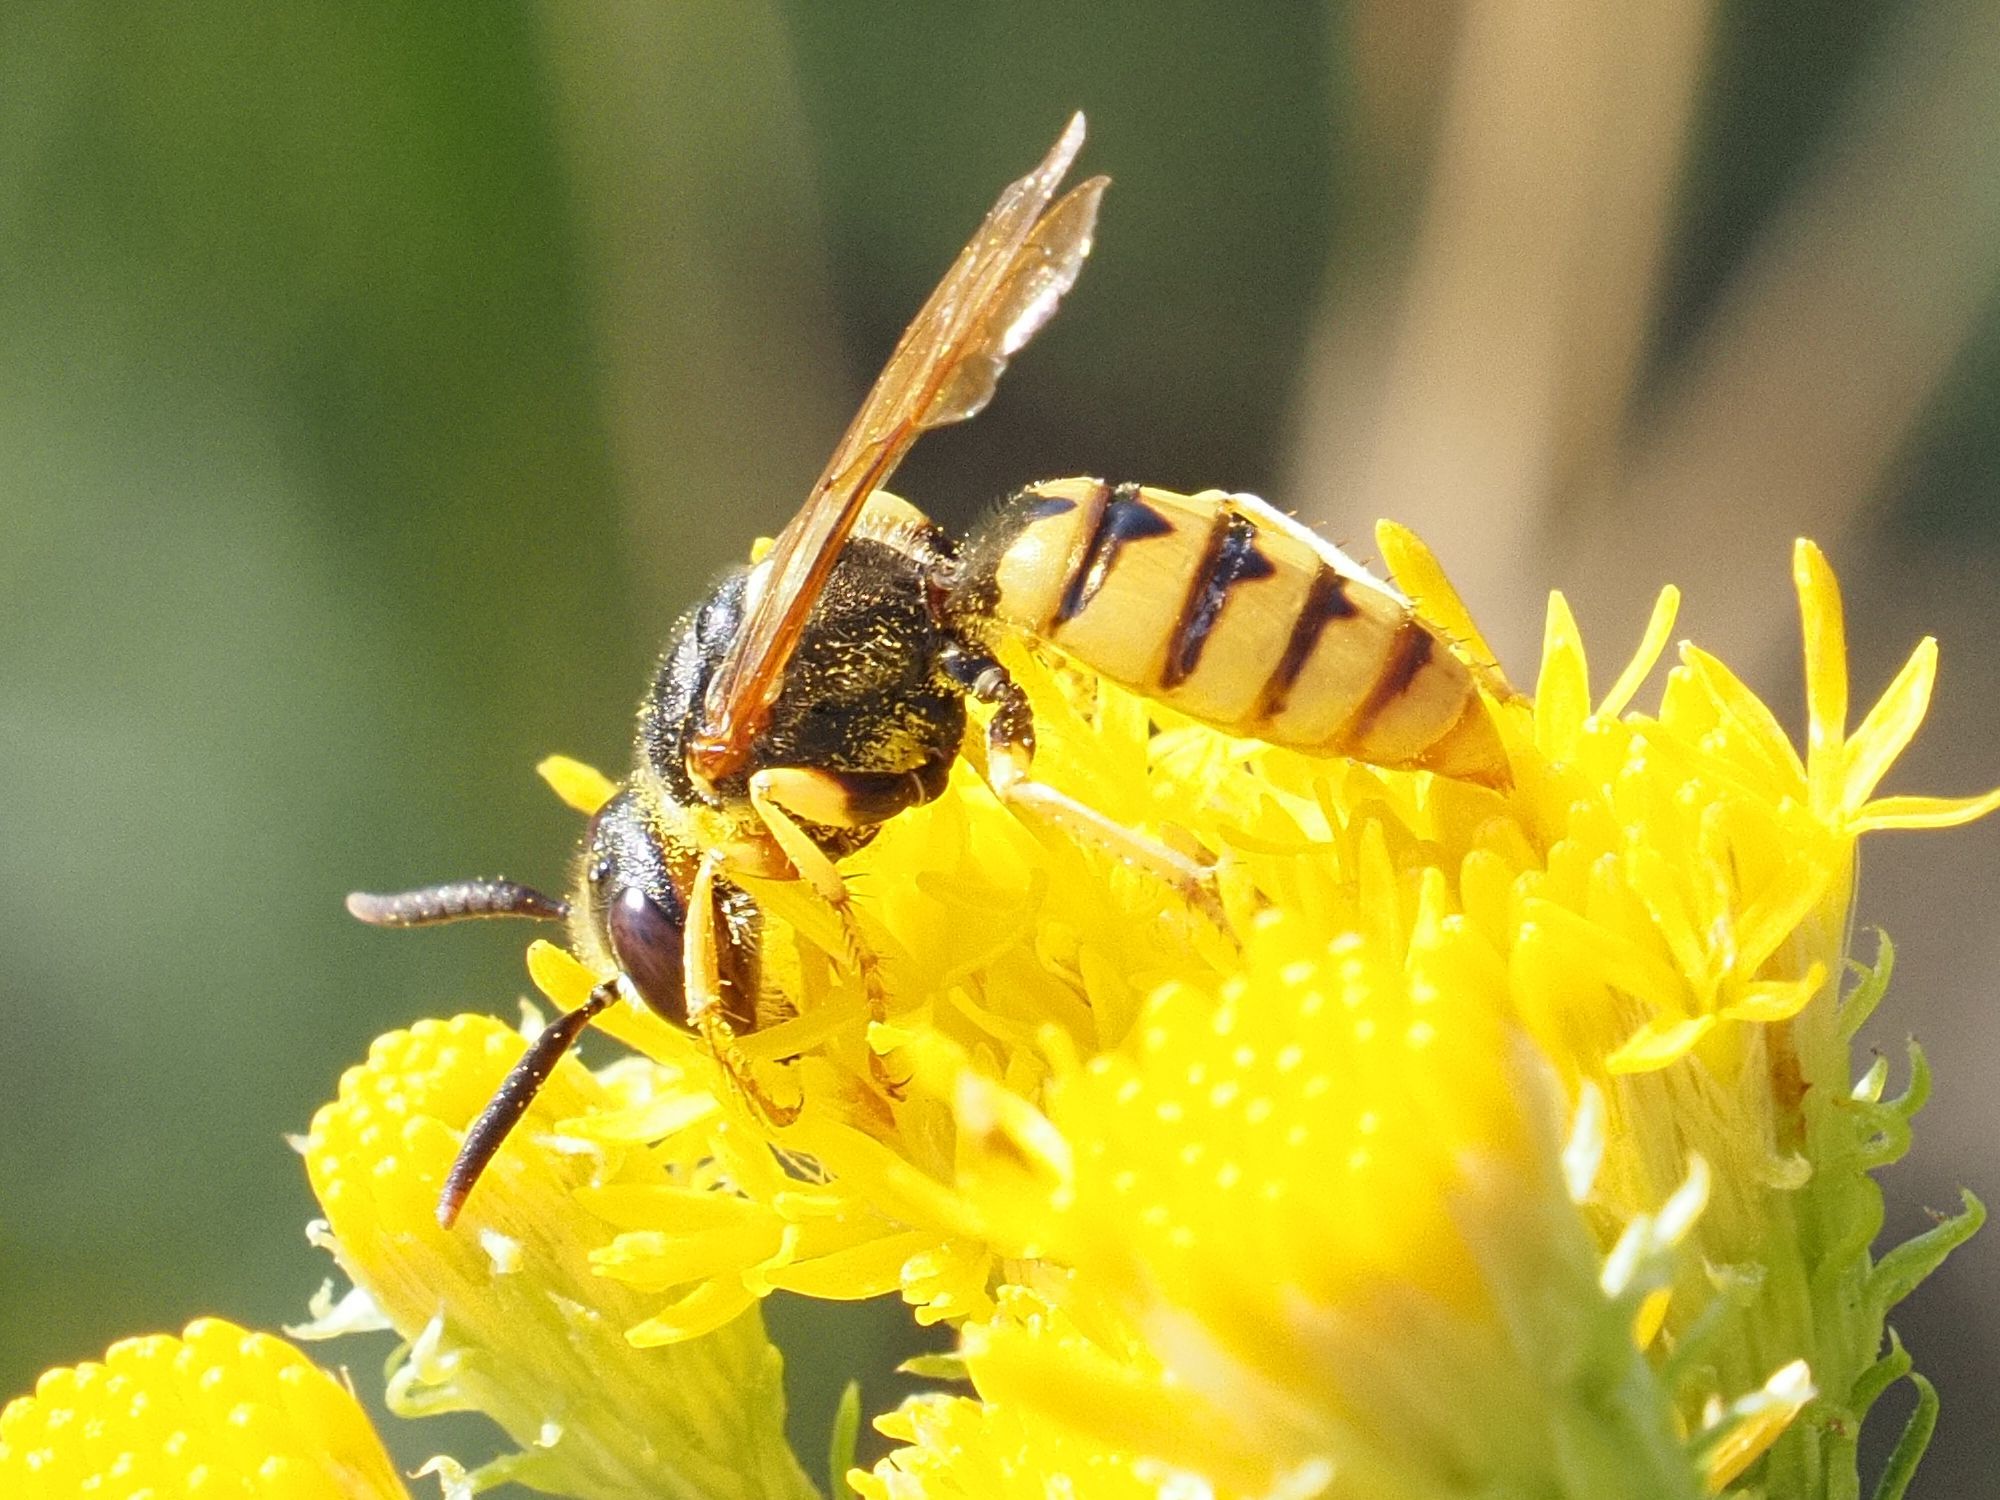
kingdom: Animalia
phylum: Arthropoda
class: Insecta
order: Hymenoptera
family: Crabronidae
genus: Philanthus
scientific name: Philanthus triangulum
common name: Bee wolf
